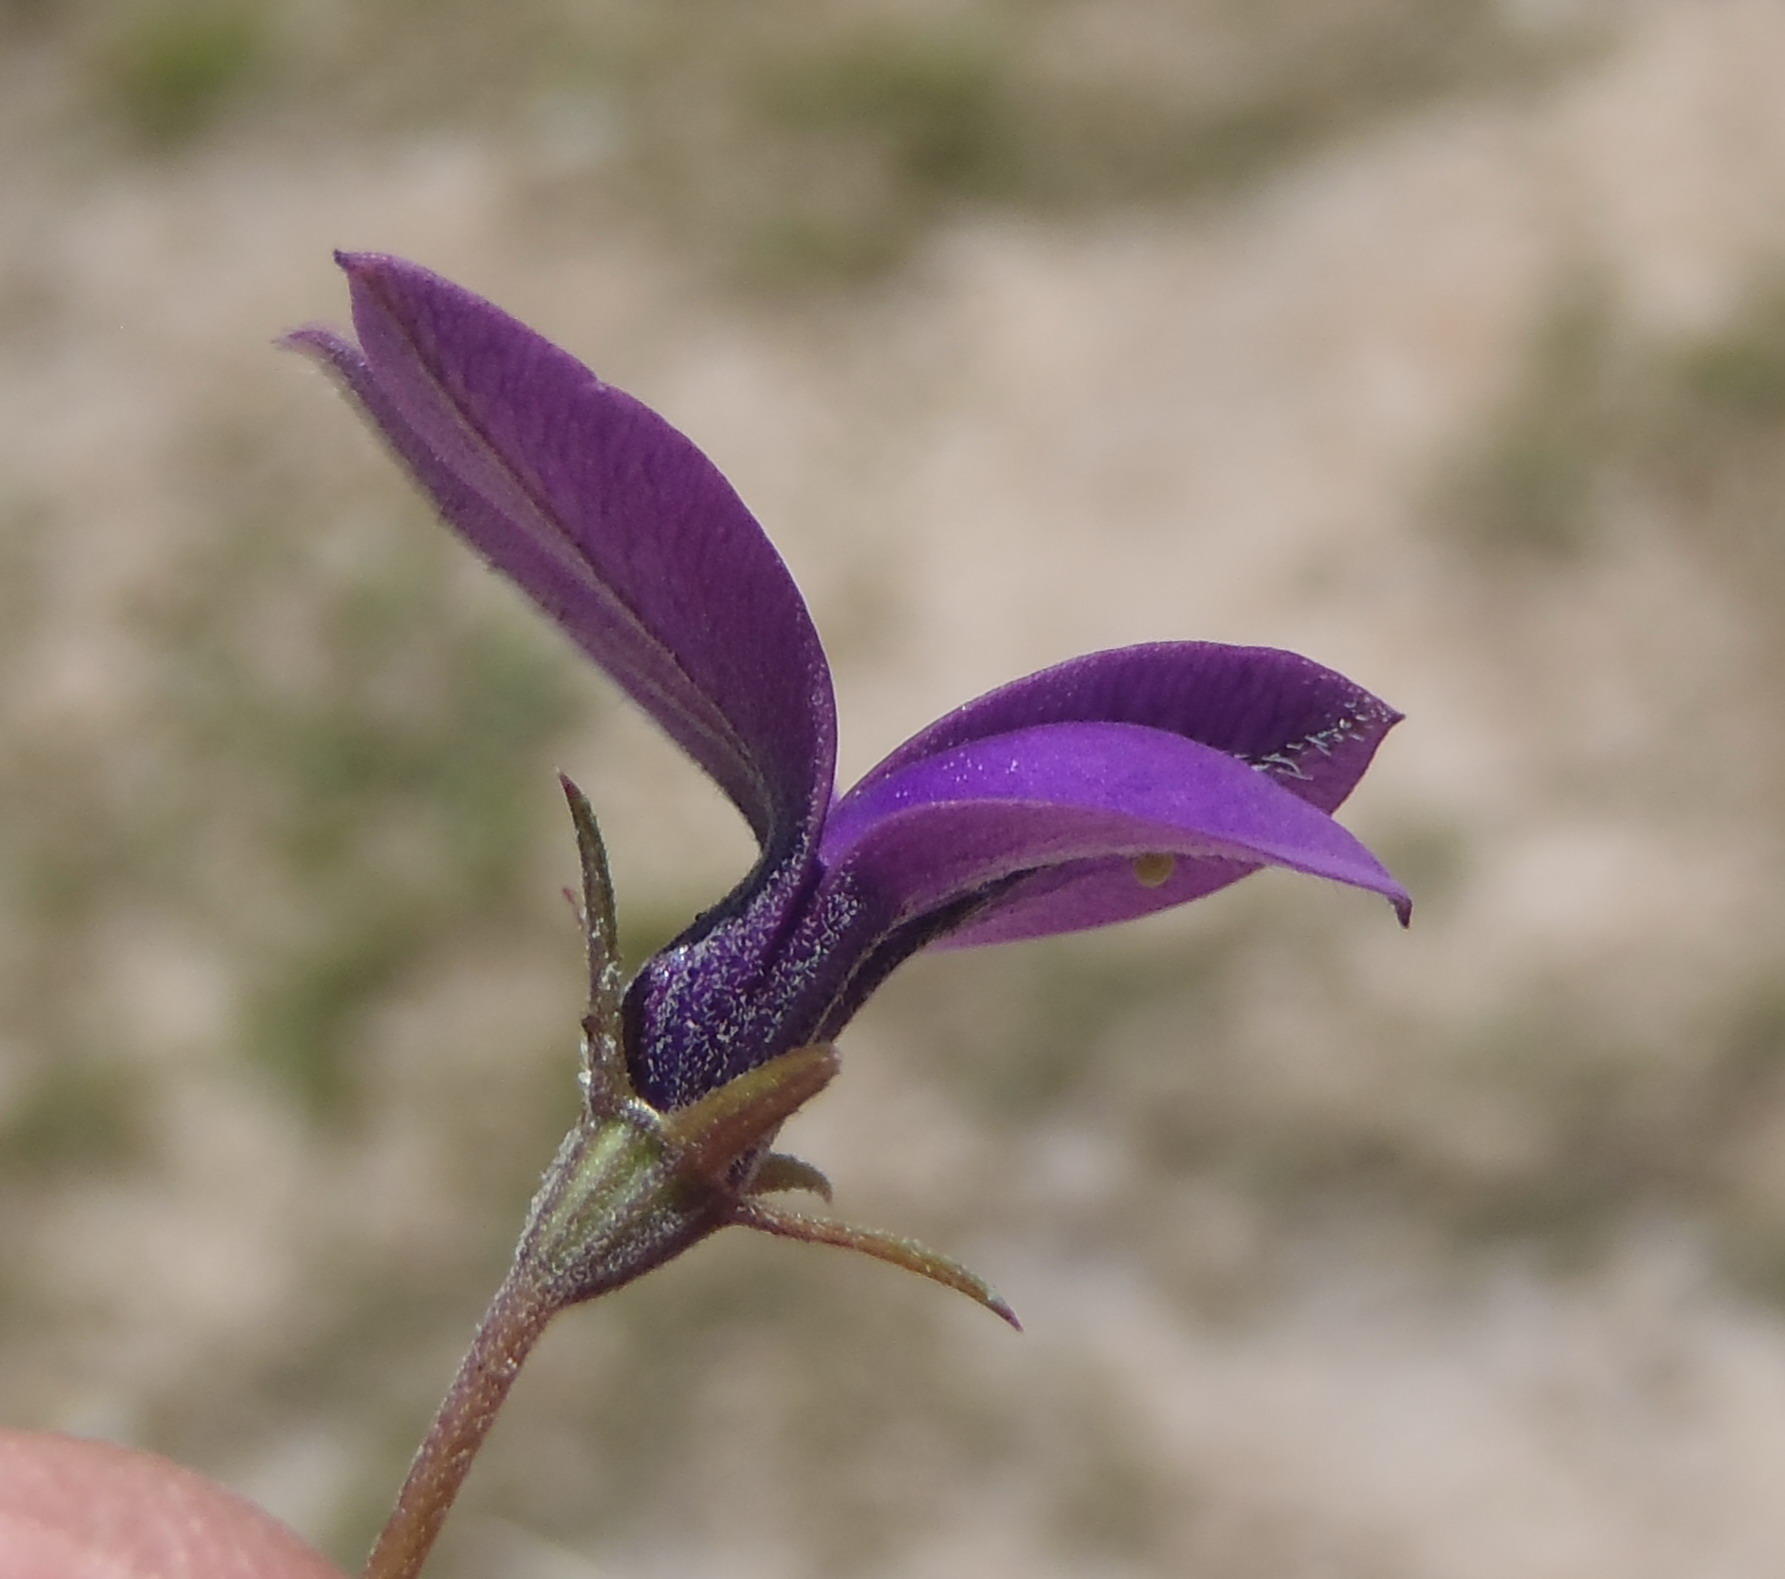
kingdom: Plantae
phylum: Tracheophyta
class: Magnoliopsida
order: Asterales
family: Campanulaceae
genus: Monopsis
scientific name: Monopsis unidentata
